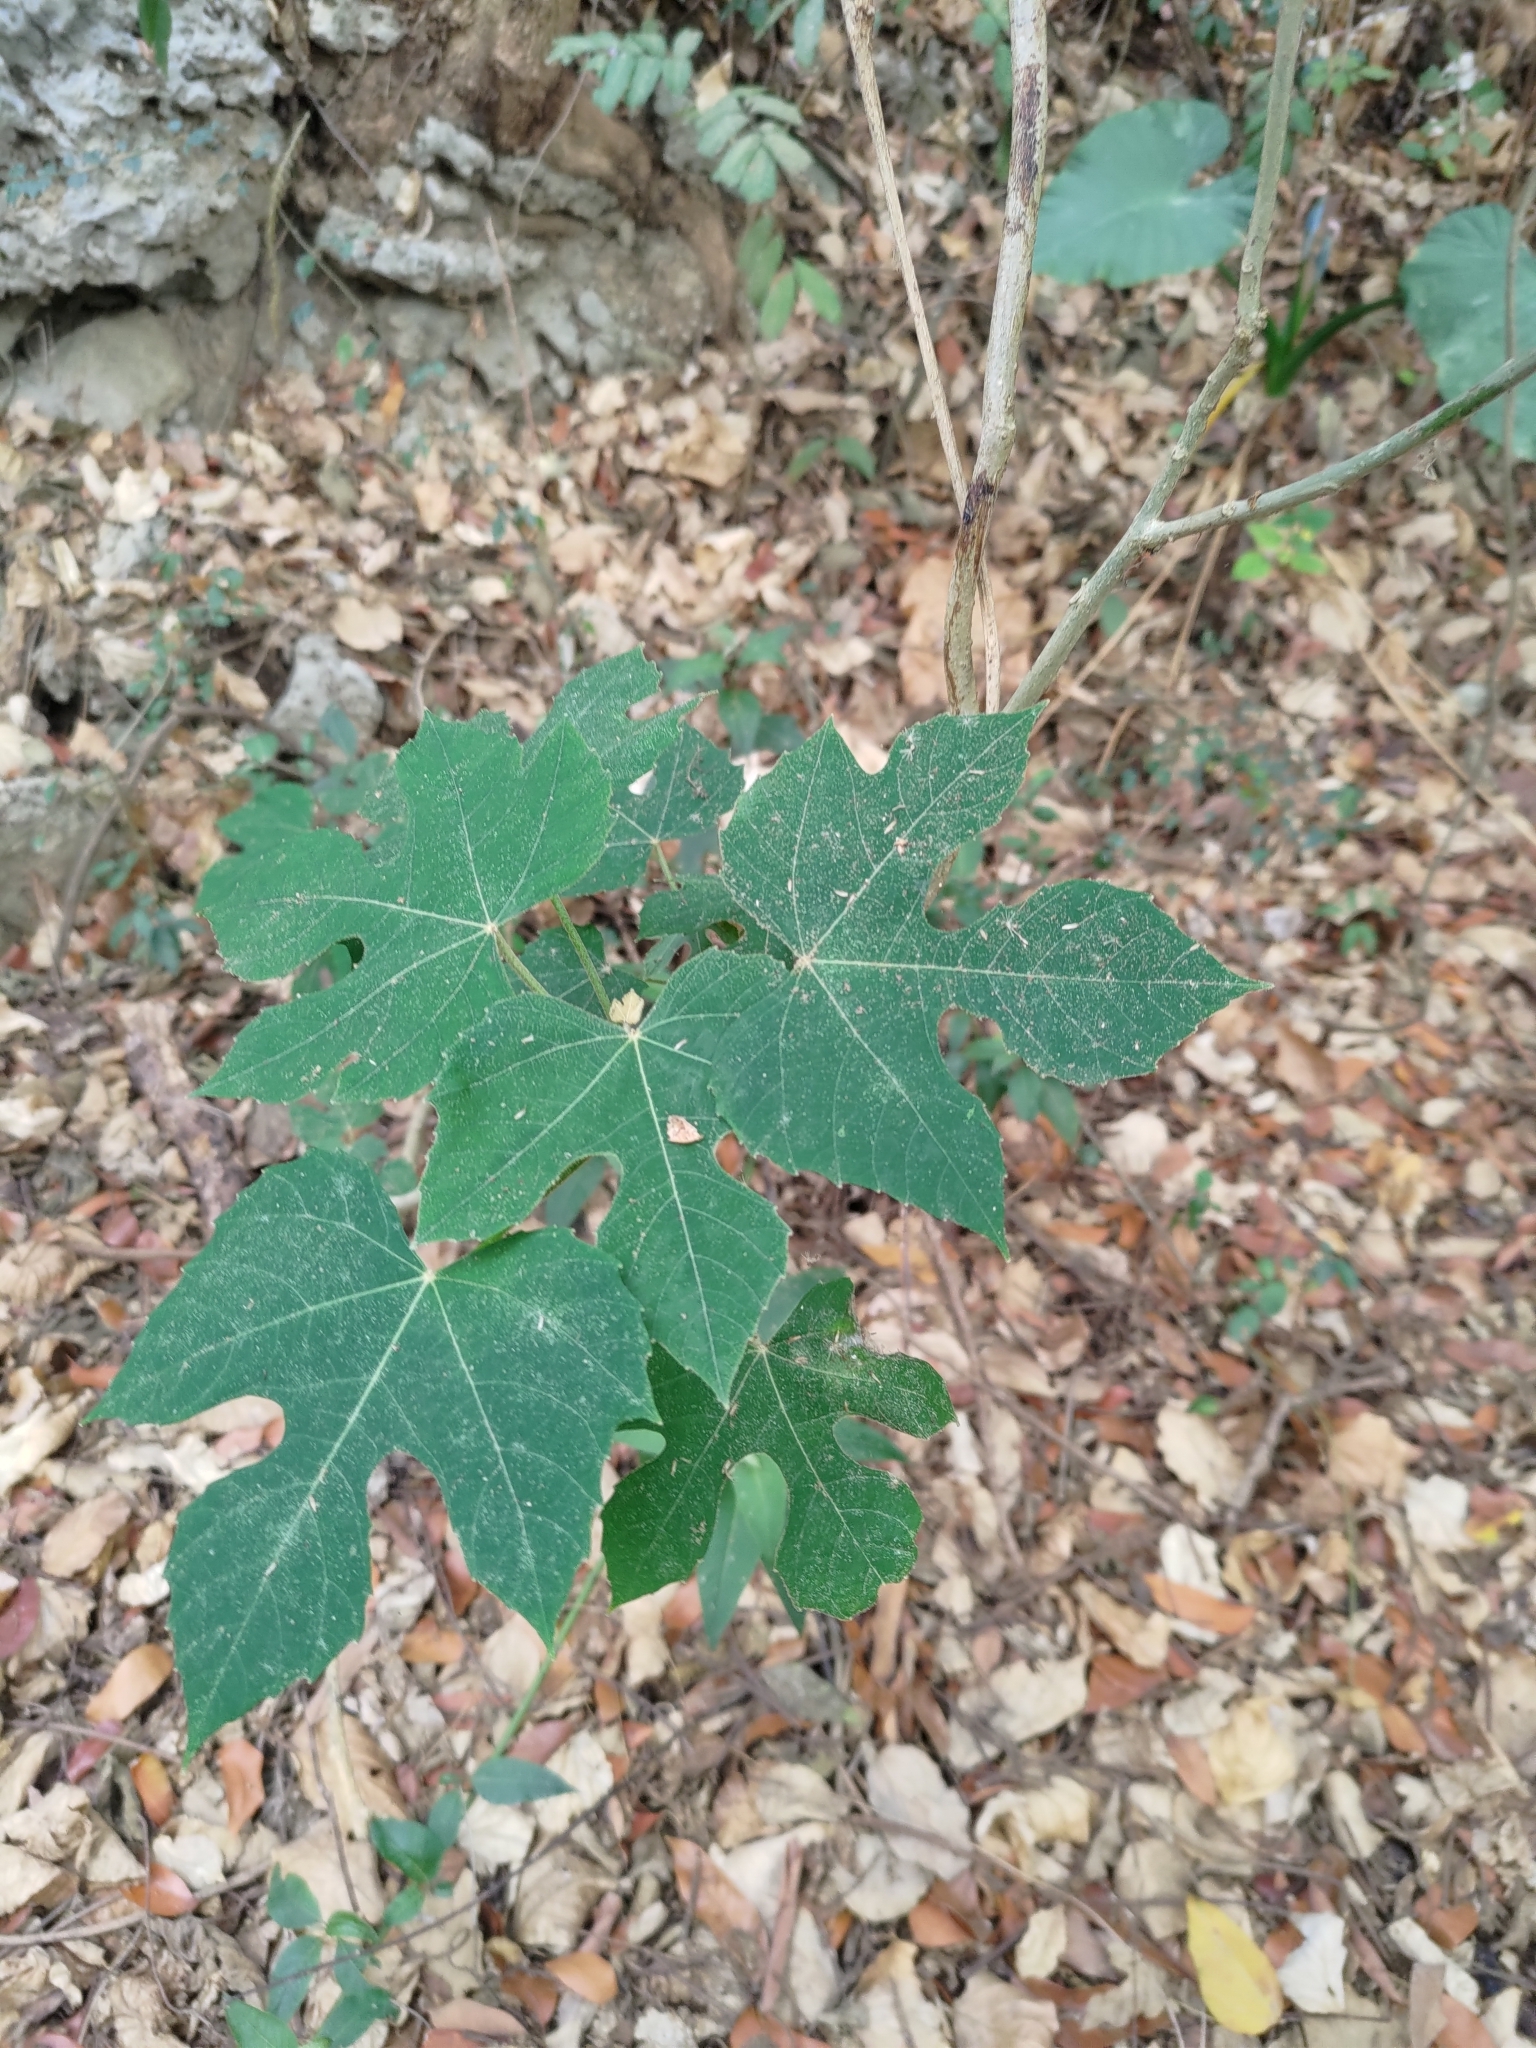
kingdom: Plantae
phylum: Tracheophyta
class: Magnoliopsida
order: Malpighiales
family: Euphorbiaceae
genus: Melanolepis
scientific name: Melanolepis multiglandulosa
